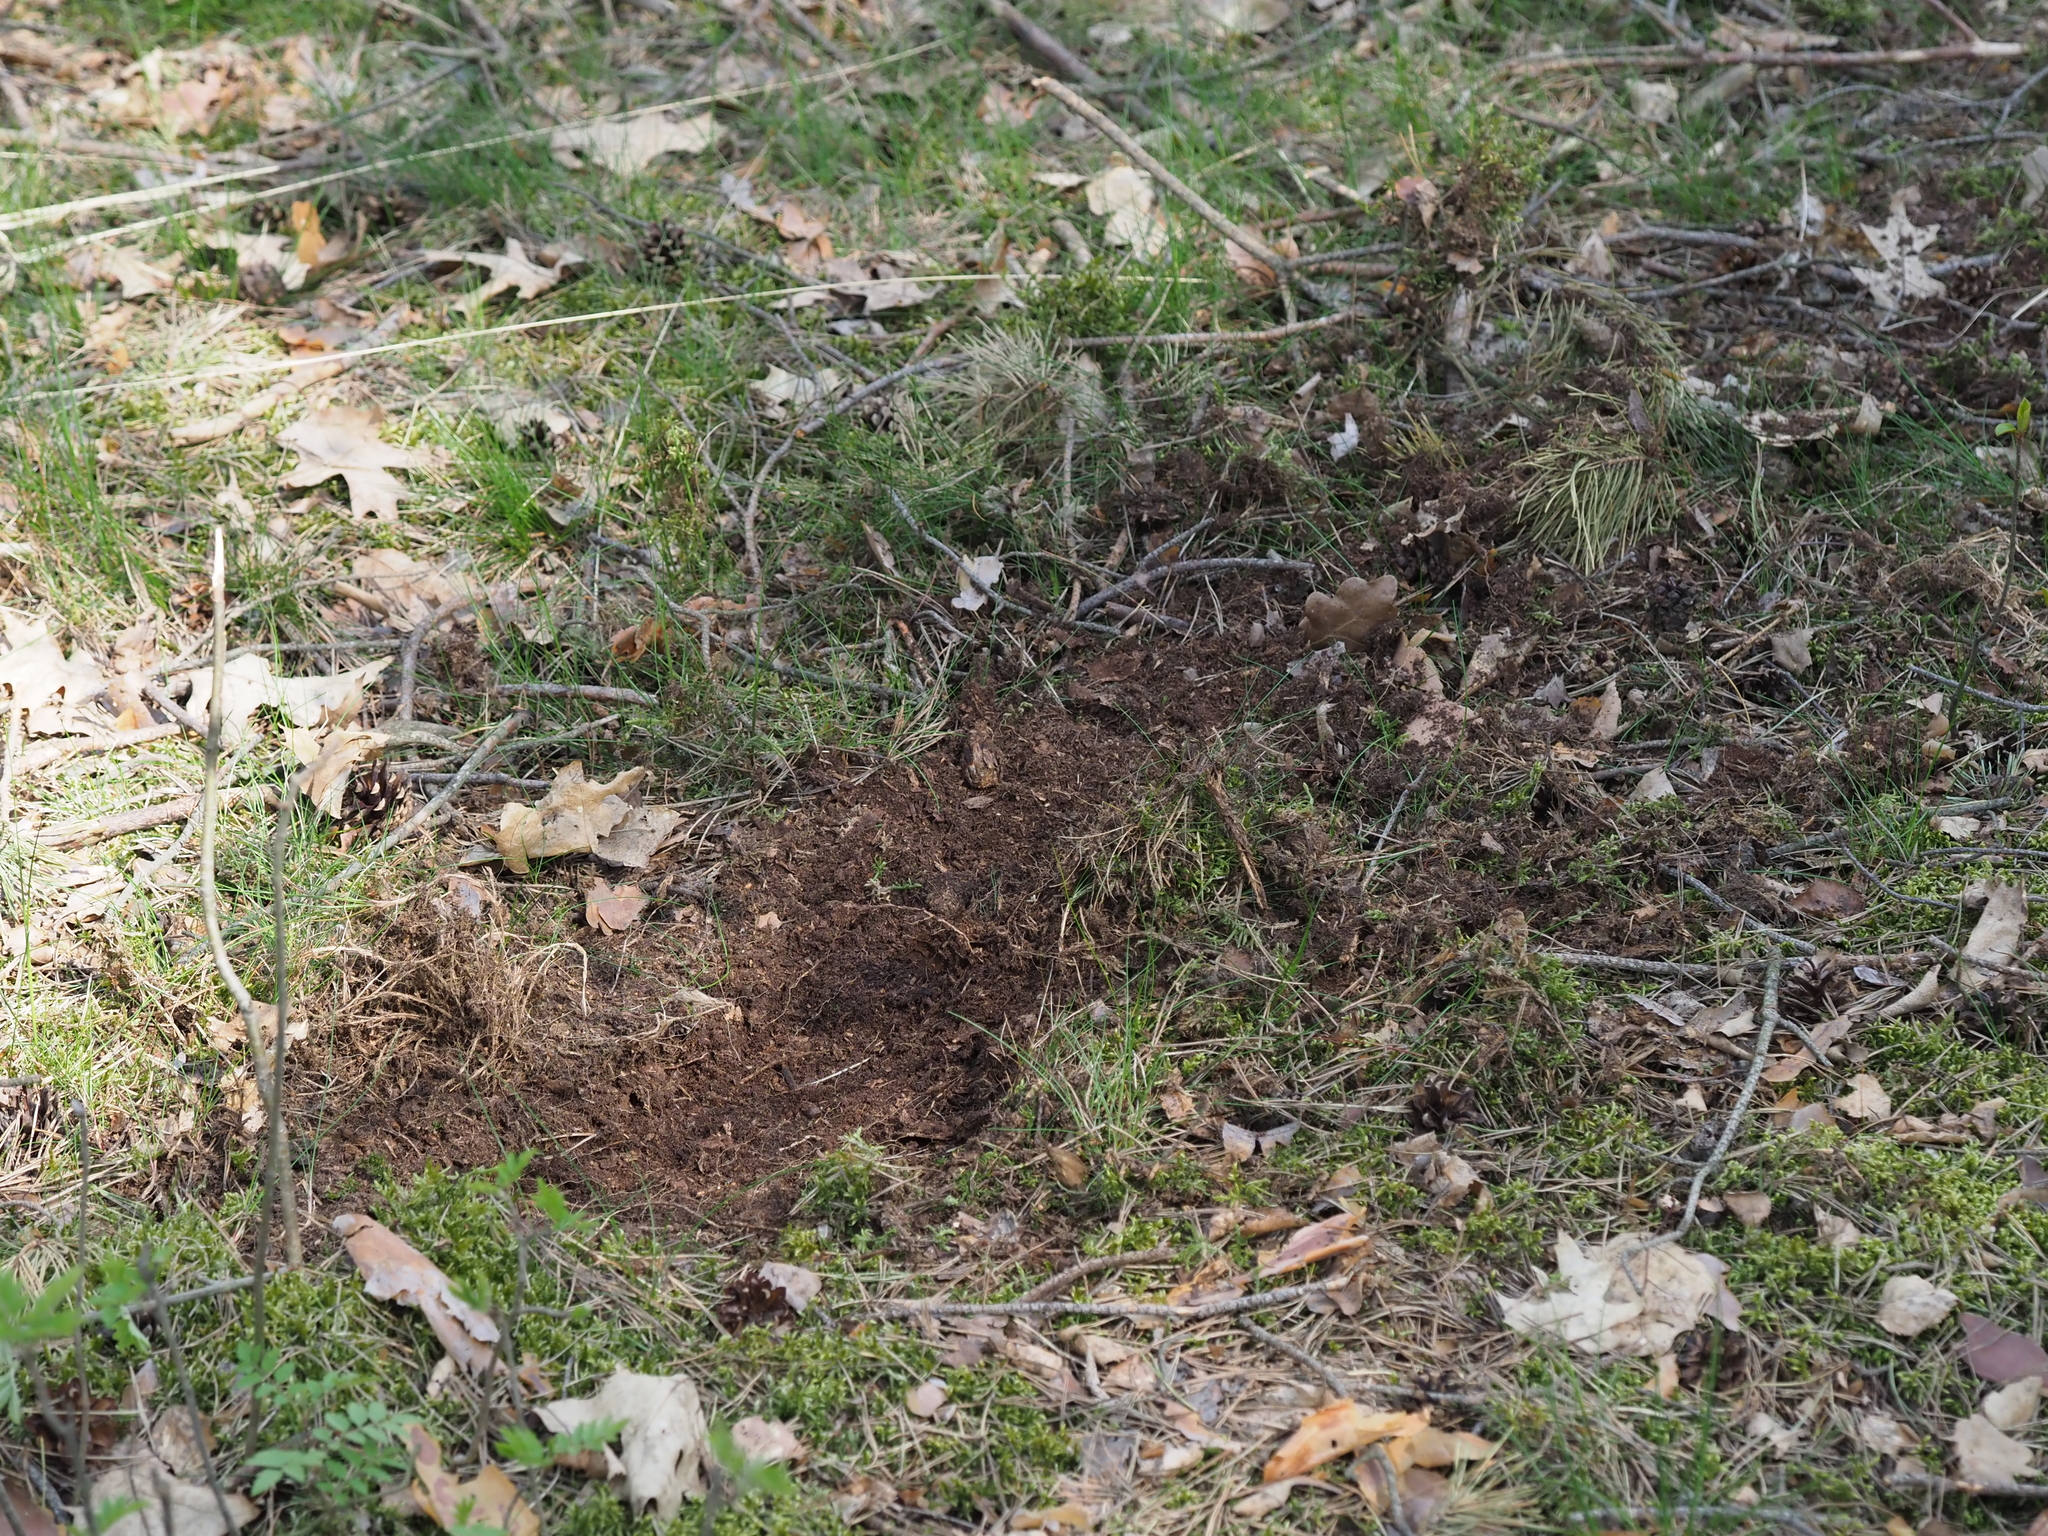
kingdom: Animalia
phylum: Chordata
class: Mammalia
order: Artiodactyla
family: Suidae
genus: Sus
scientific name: Sus scrofa
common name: Wild boar
